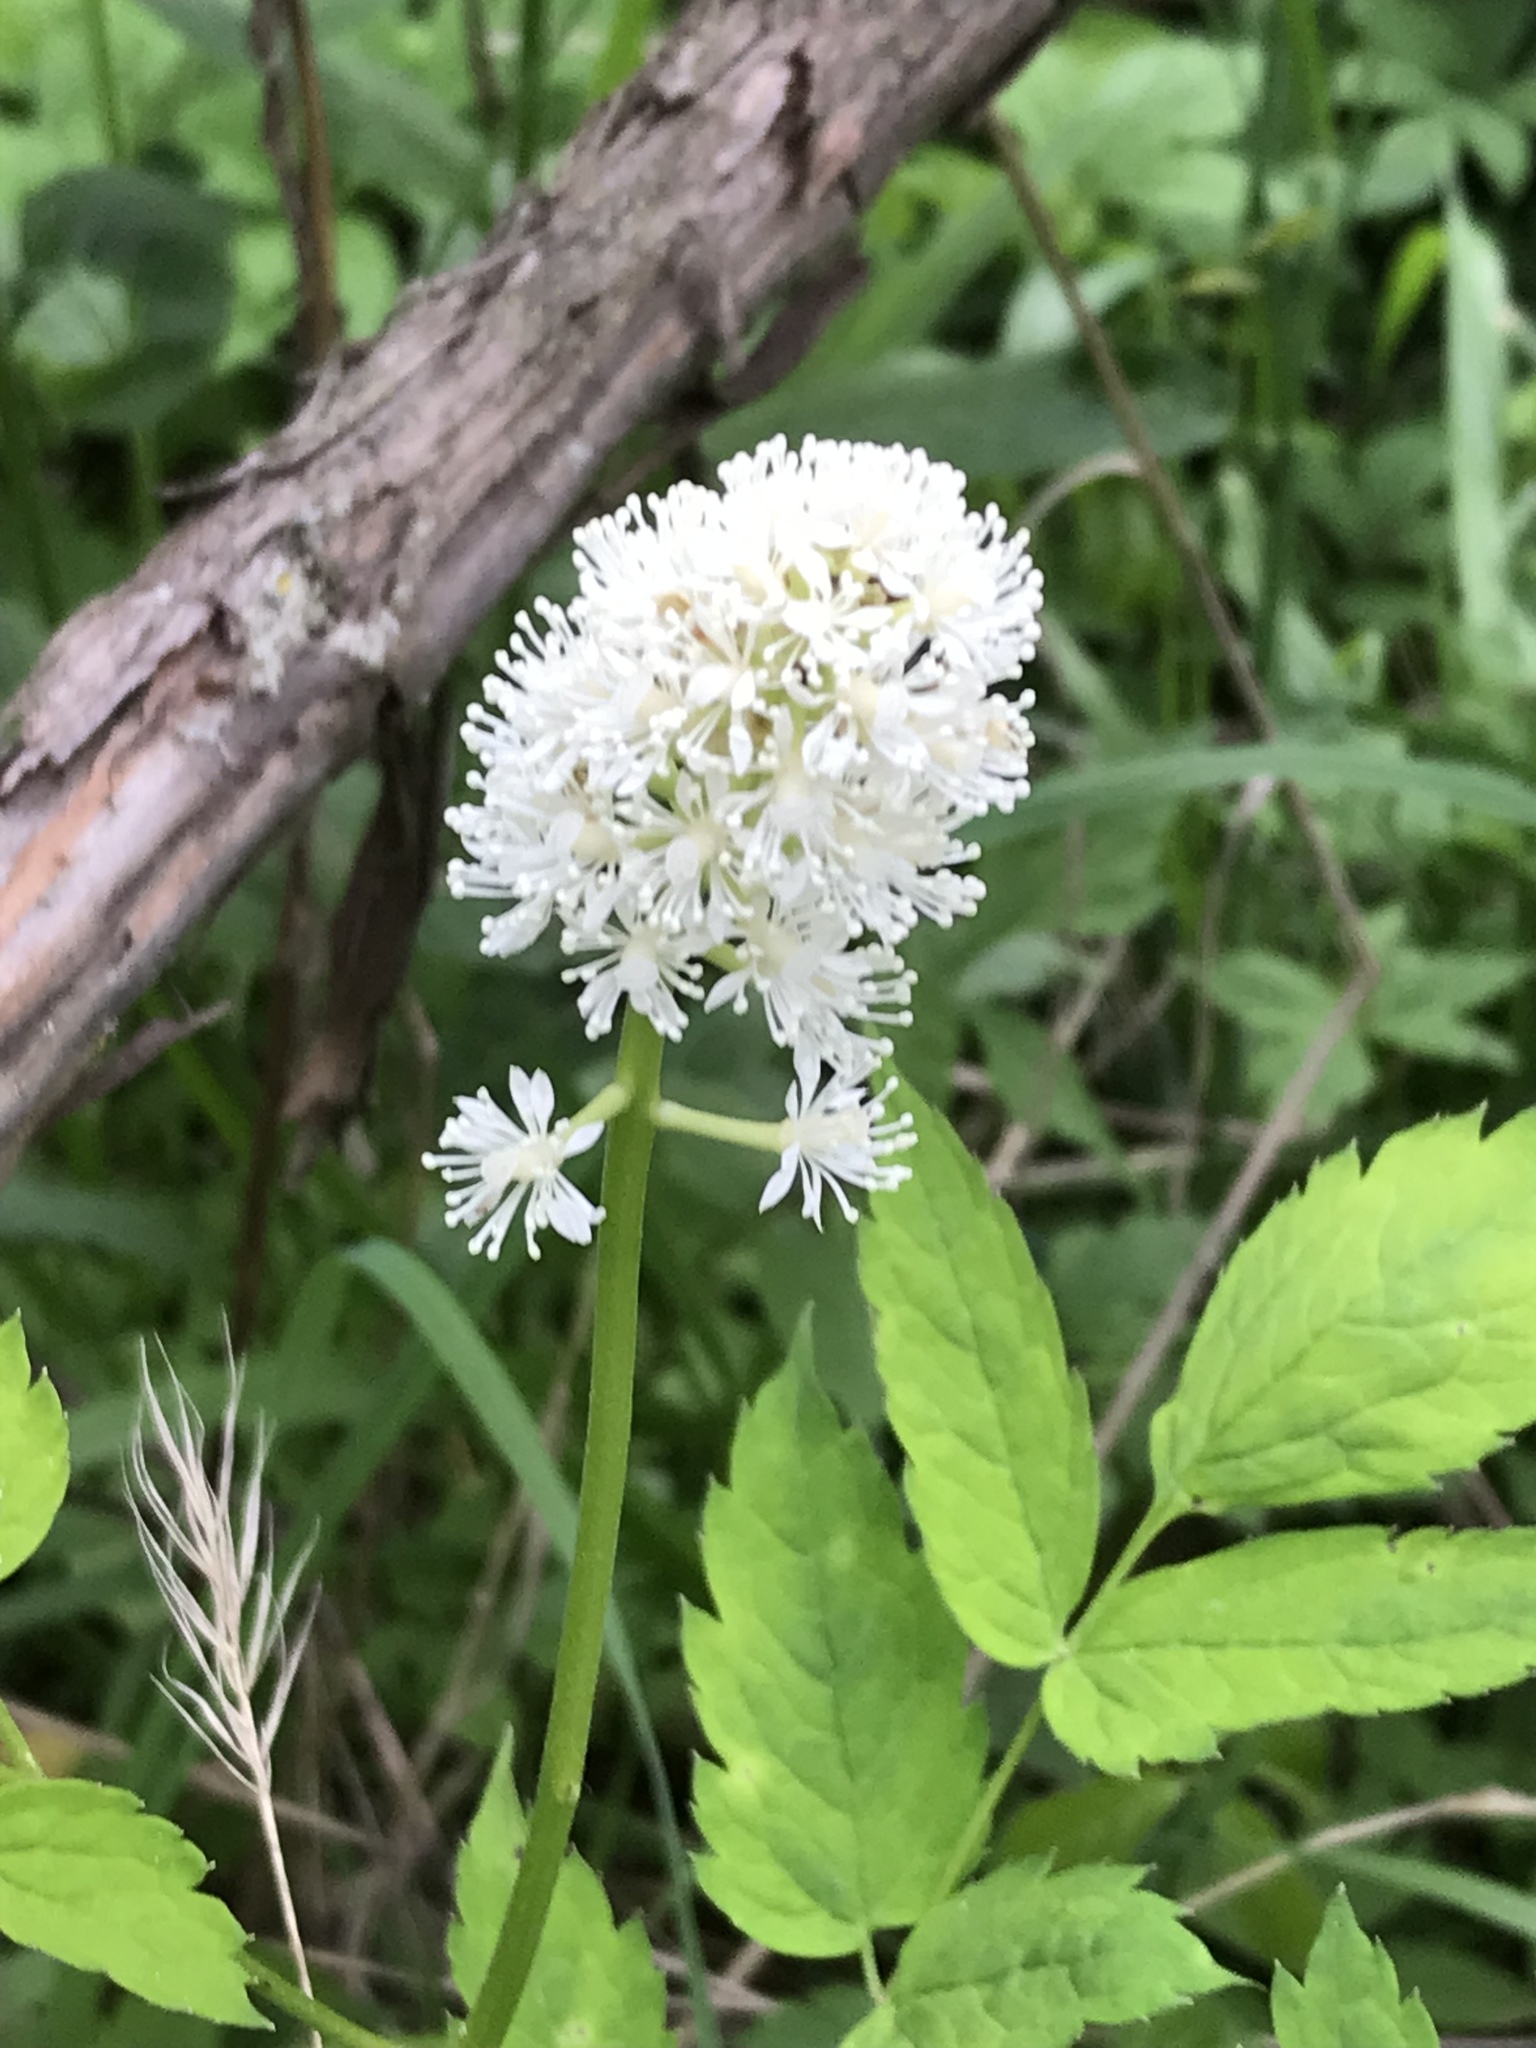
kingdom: Plantae
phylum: Tracheophyta
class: Magnoliopsida
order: Ranunculales
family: Ranunculaceae
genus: Actaea
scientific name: Actaea pachypoda
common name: Doll's-eyes
